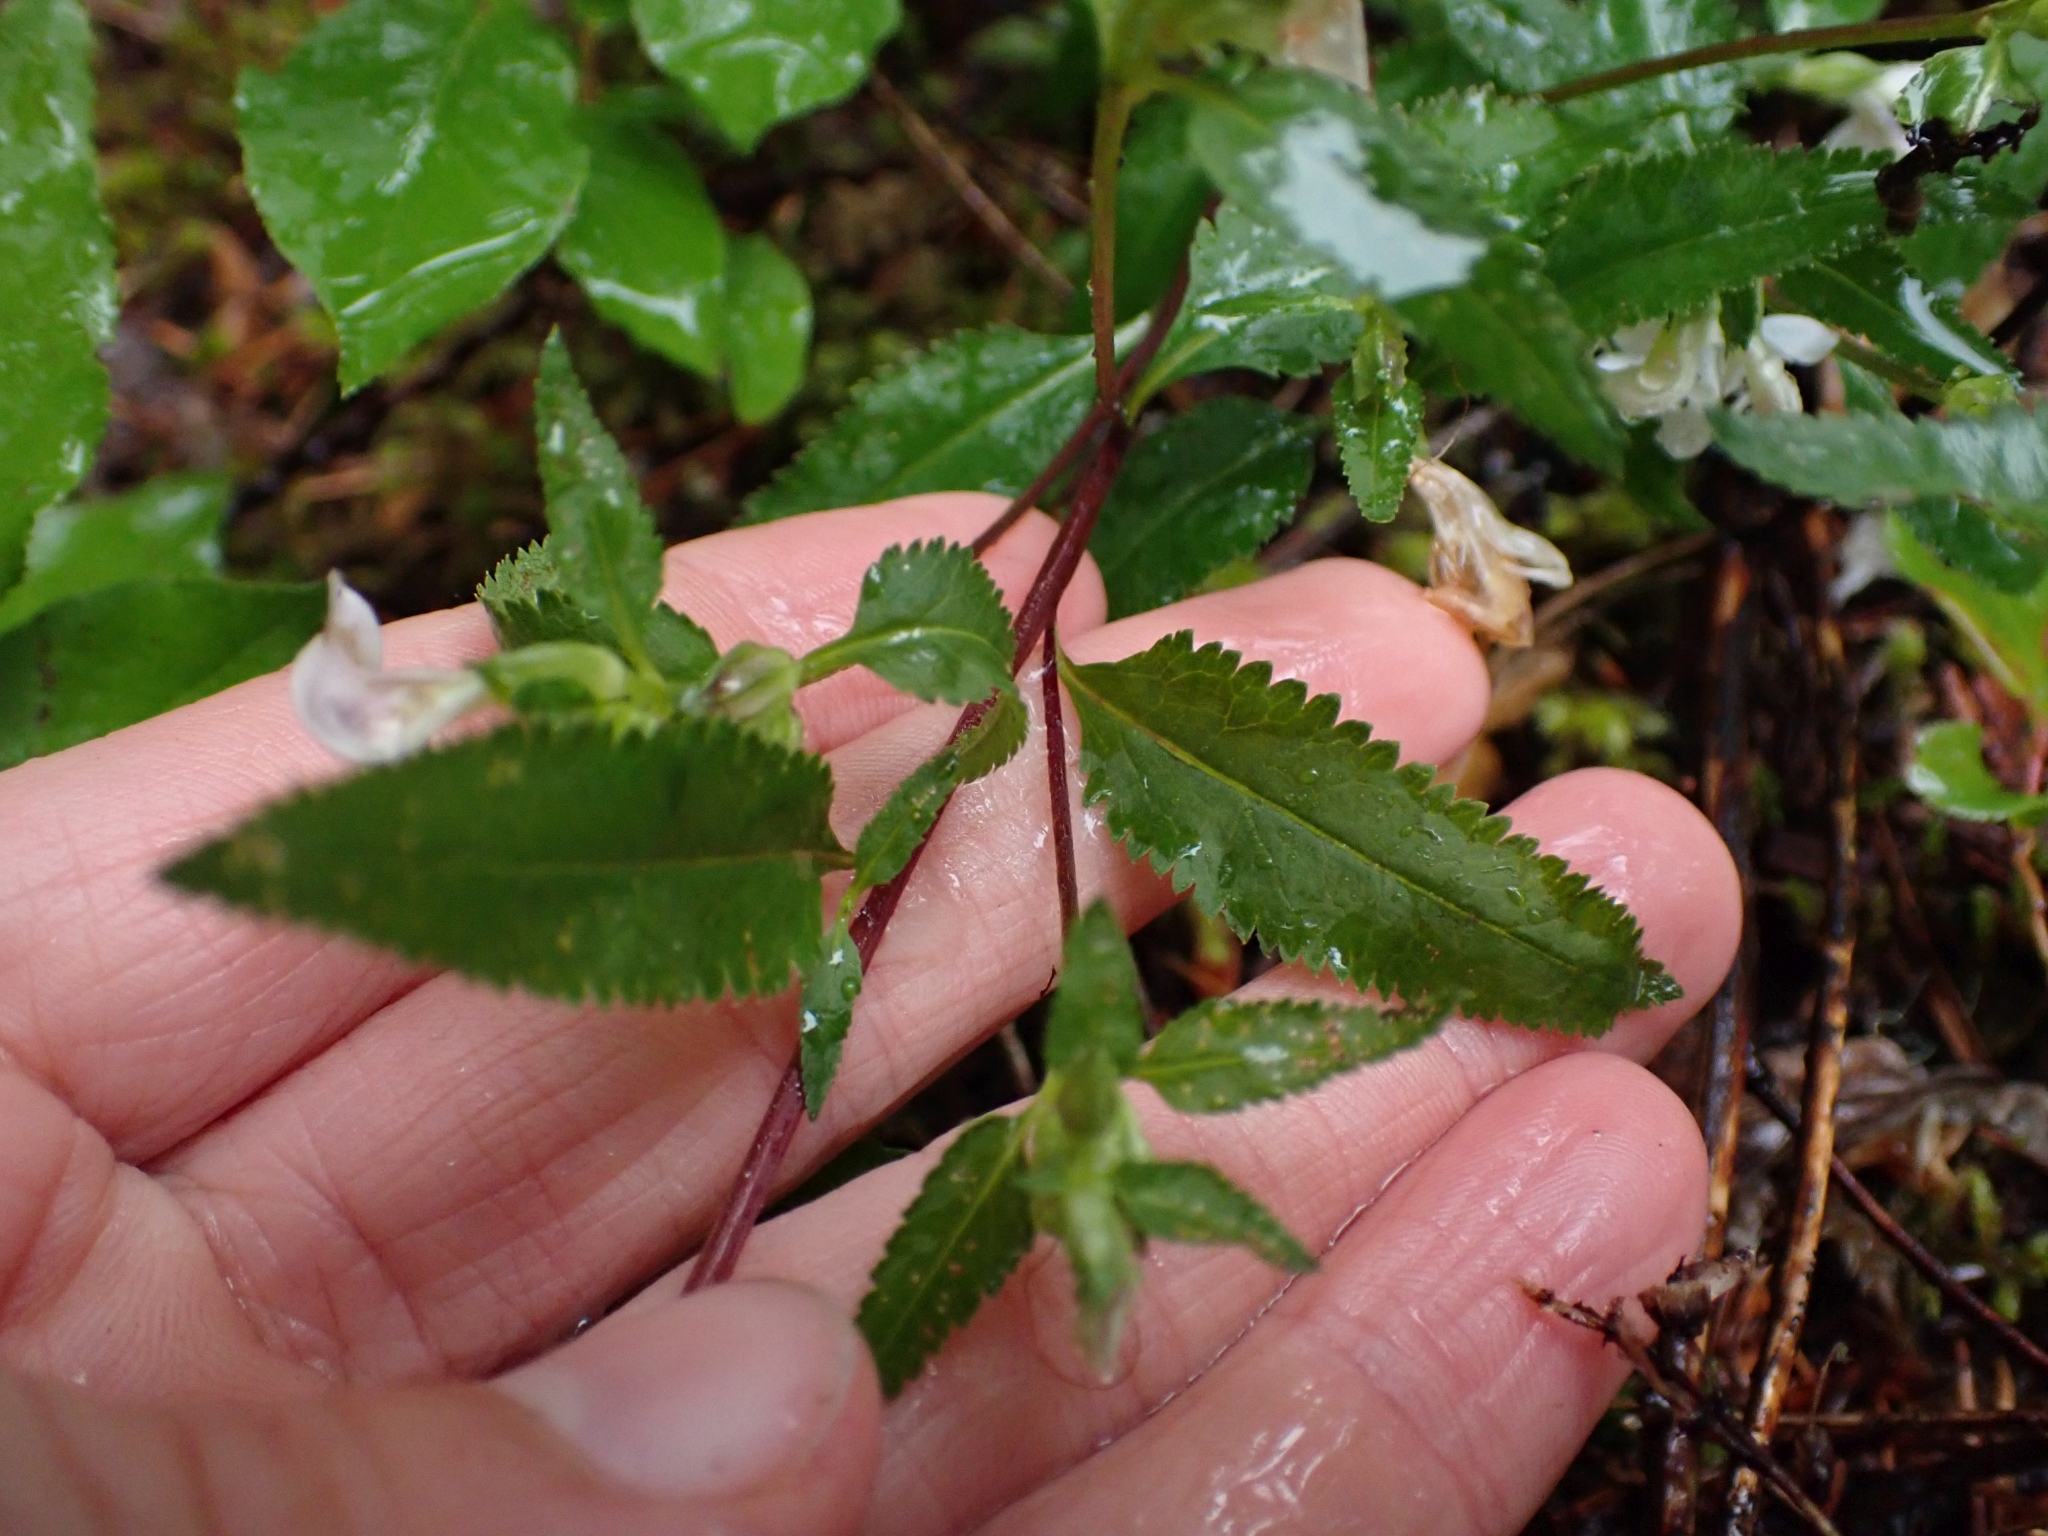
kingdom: Plantae
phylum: Tracheophyta
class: Magnoliopsida
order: Lamiales
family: Orobanchaceae
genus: Pedicularis
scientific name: Pedicularis racemosa
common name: Leafy lousewort
